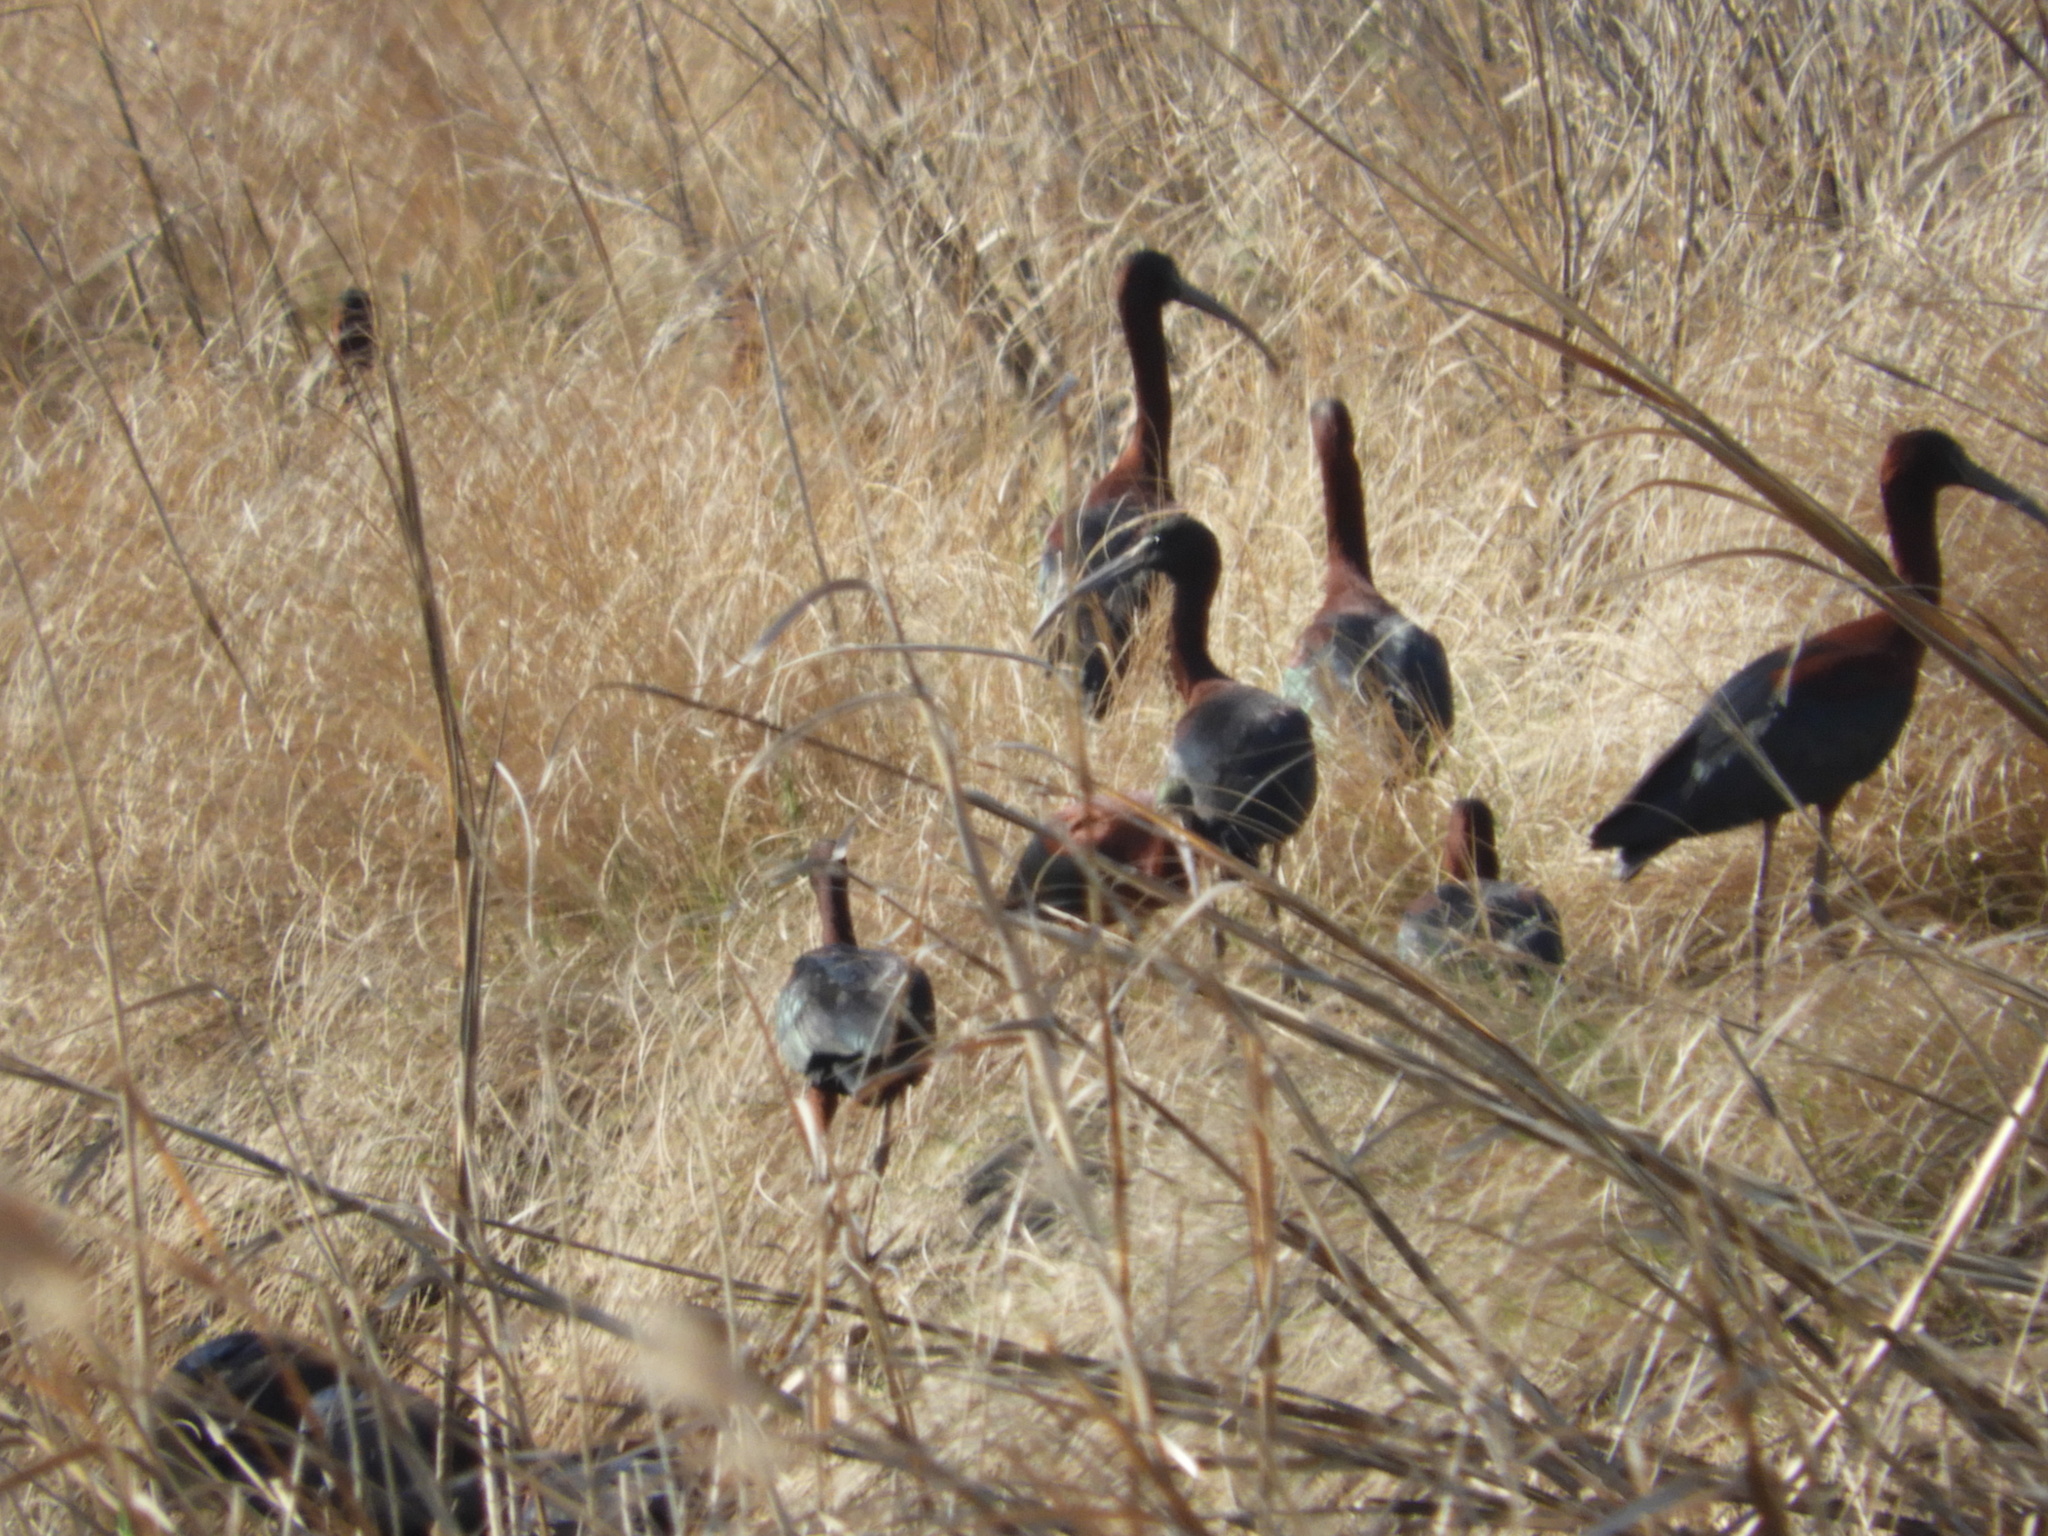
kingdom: Animalia
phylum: Chordata
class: Aves
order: Pelecaniformes
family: Threskiornithidae
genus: Plegadis
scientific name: Plegadis falcinellus
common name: Glossy ibis
